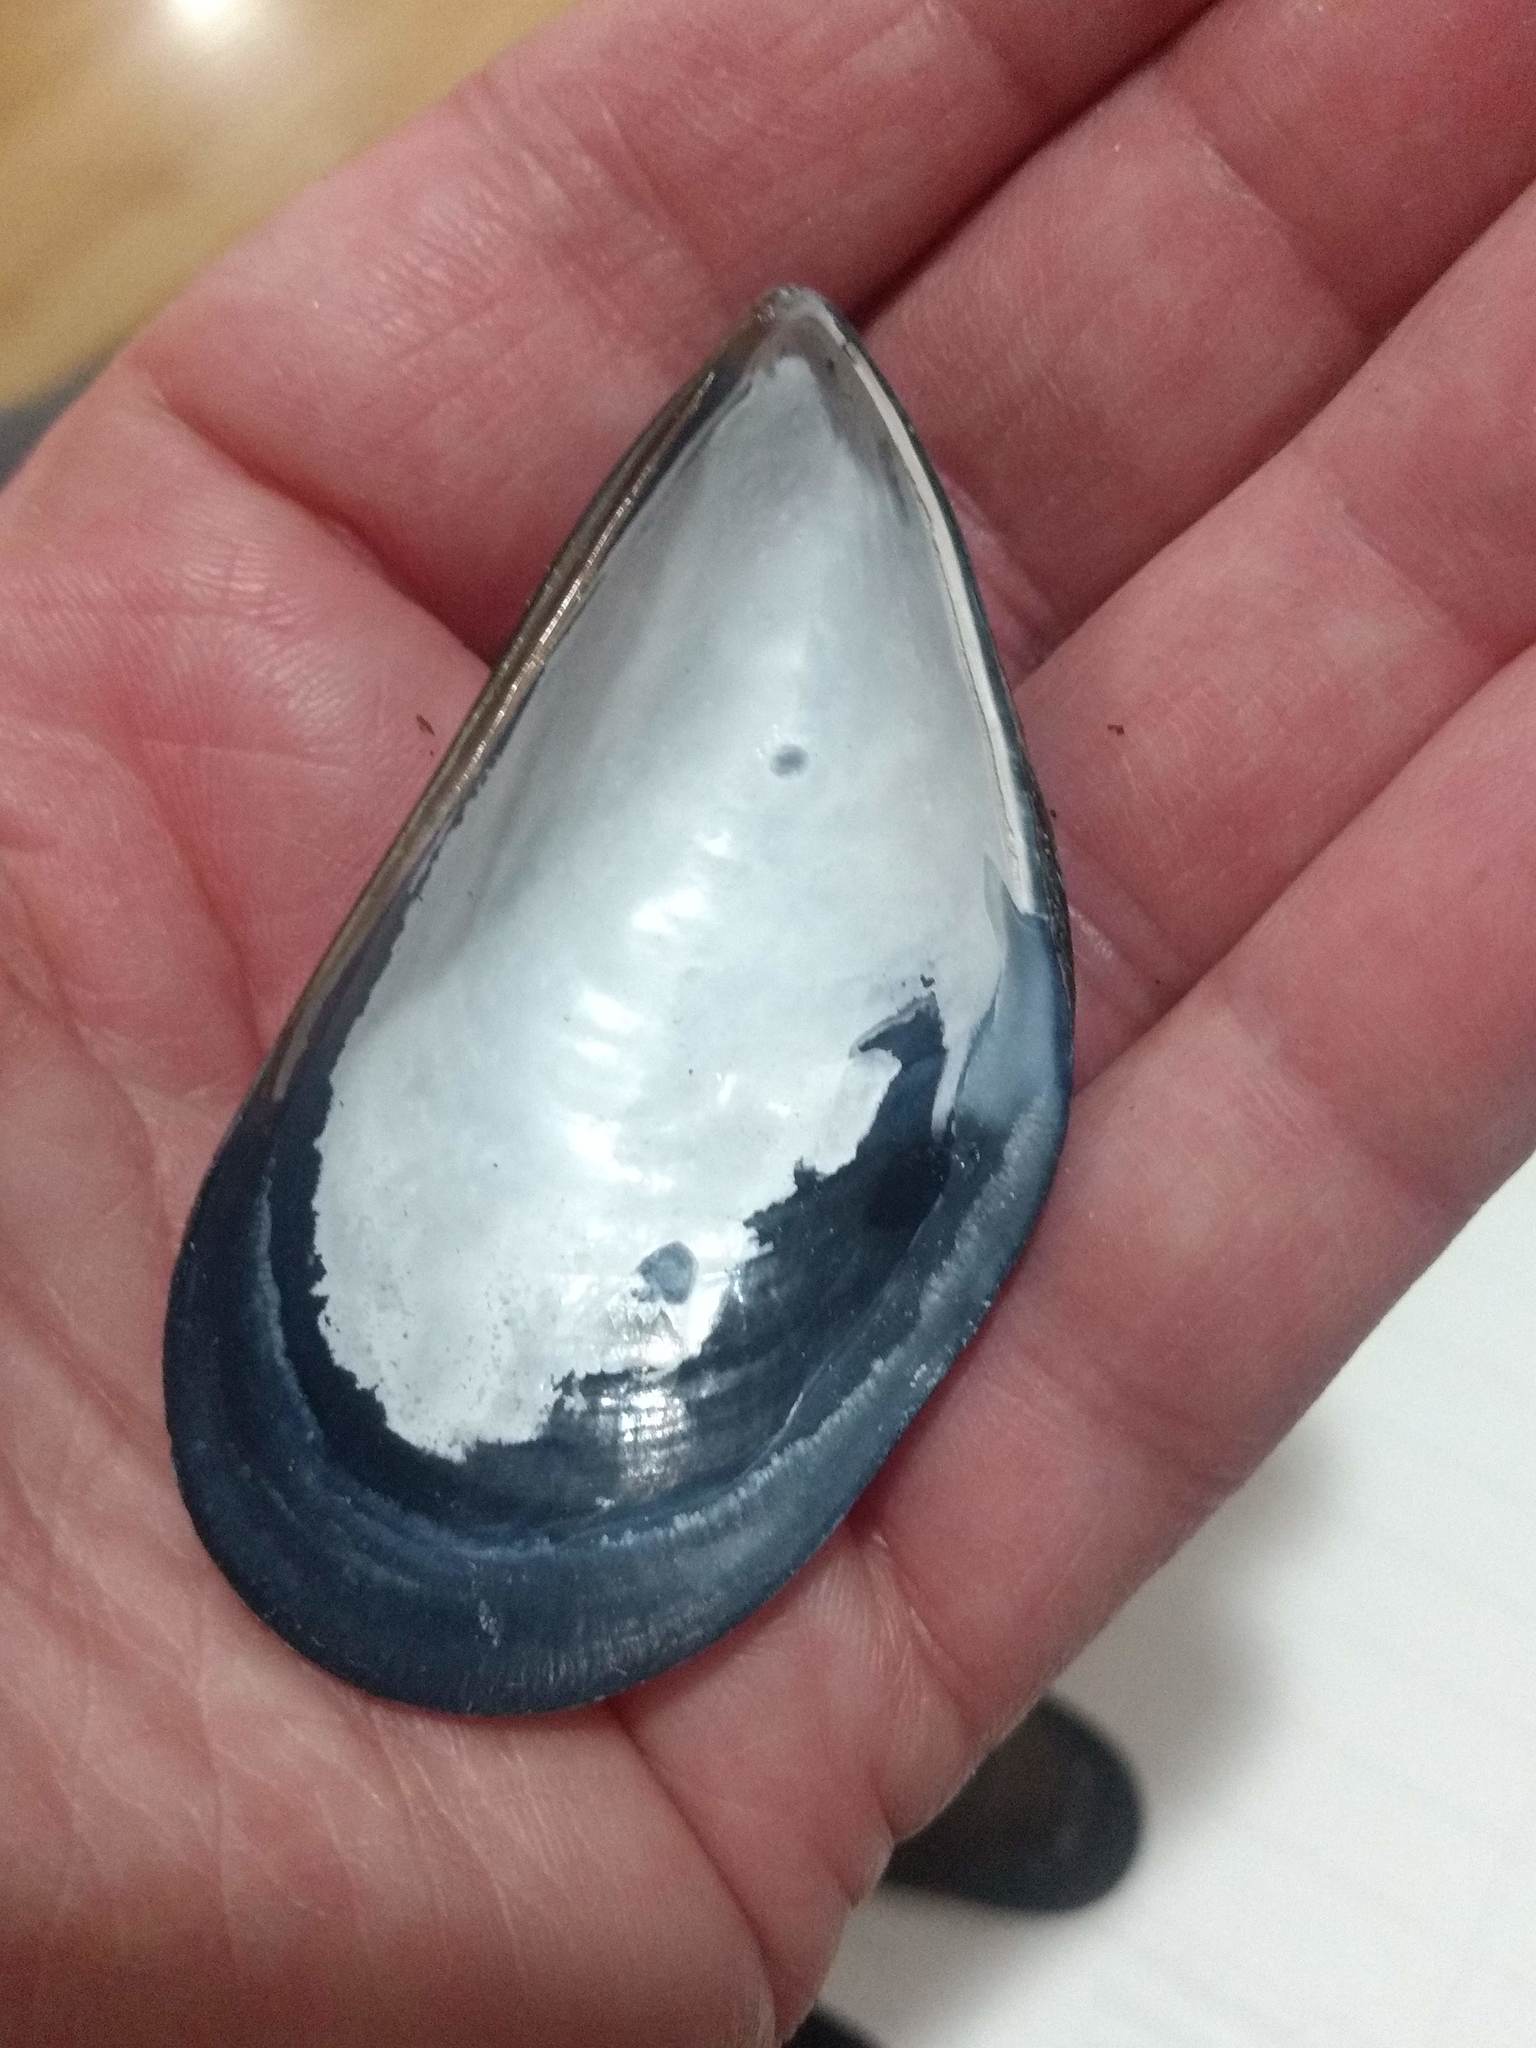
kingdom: Animalia
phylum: Mollusca
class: Bivalvia
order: Mytilida
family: Mytilidae
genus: Mytilus
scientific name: Mytilus galloprovincialis
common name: Mediterranean mussel
